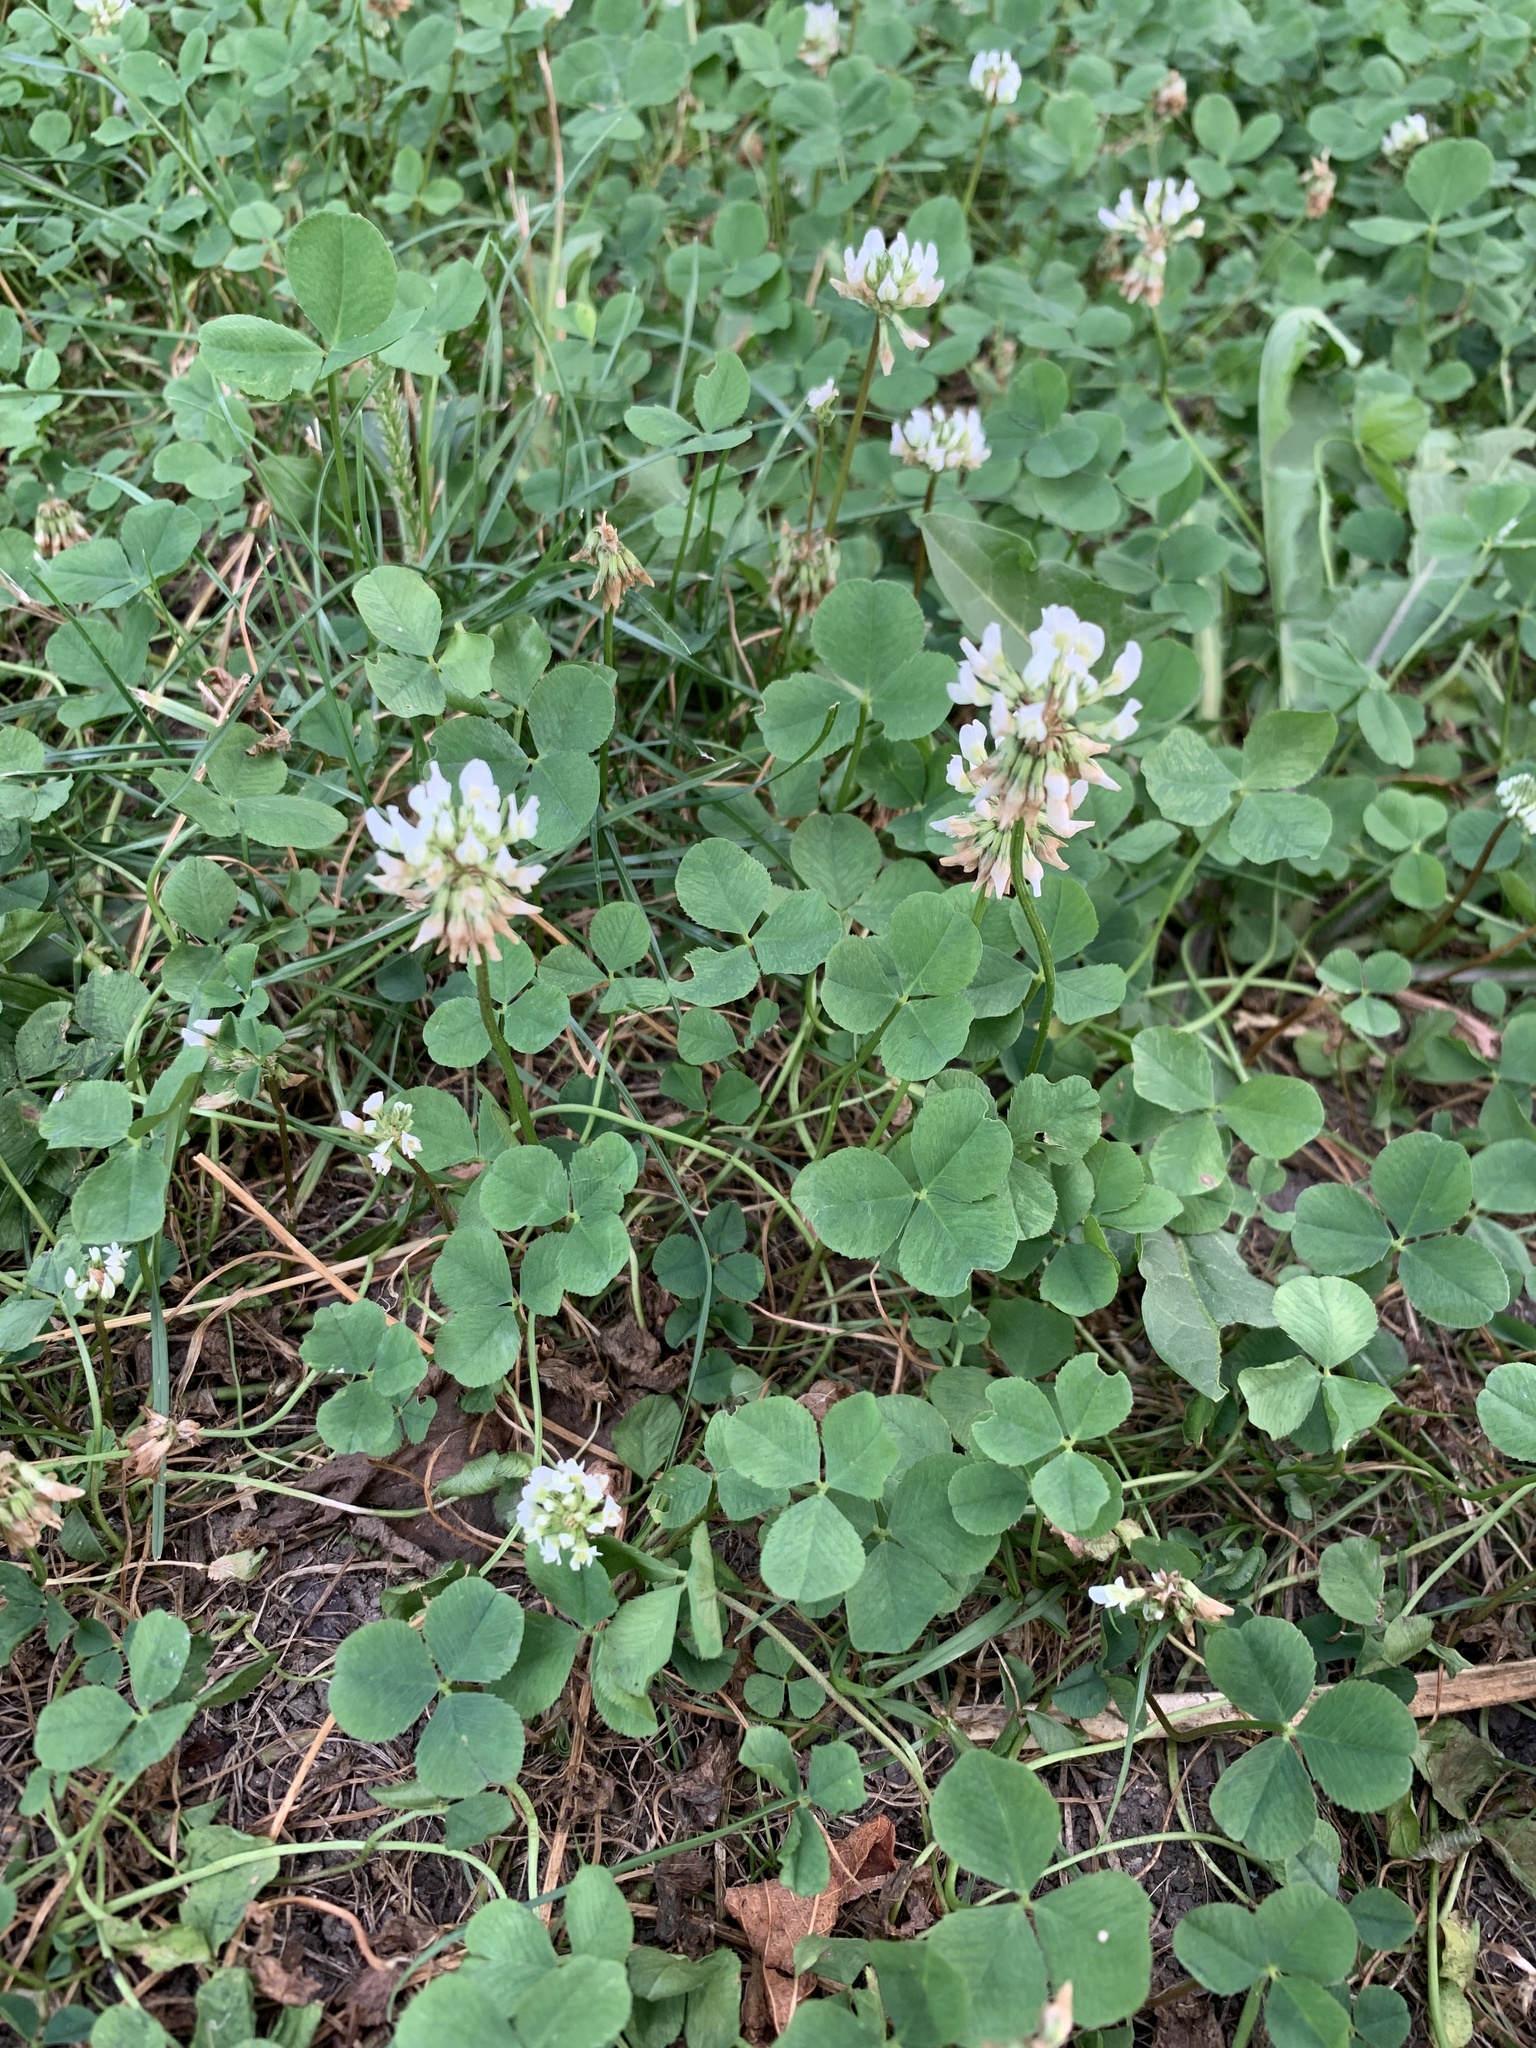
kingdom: Plantae
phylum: Tracheophyta
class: Magnoliopsida
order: Fabales
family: Fabaceae
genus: Trifolium
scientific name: Trifolium repens
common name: White clover
